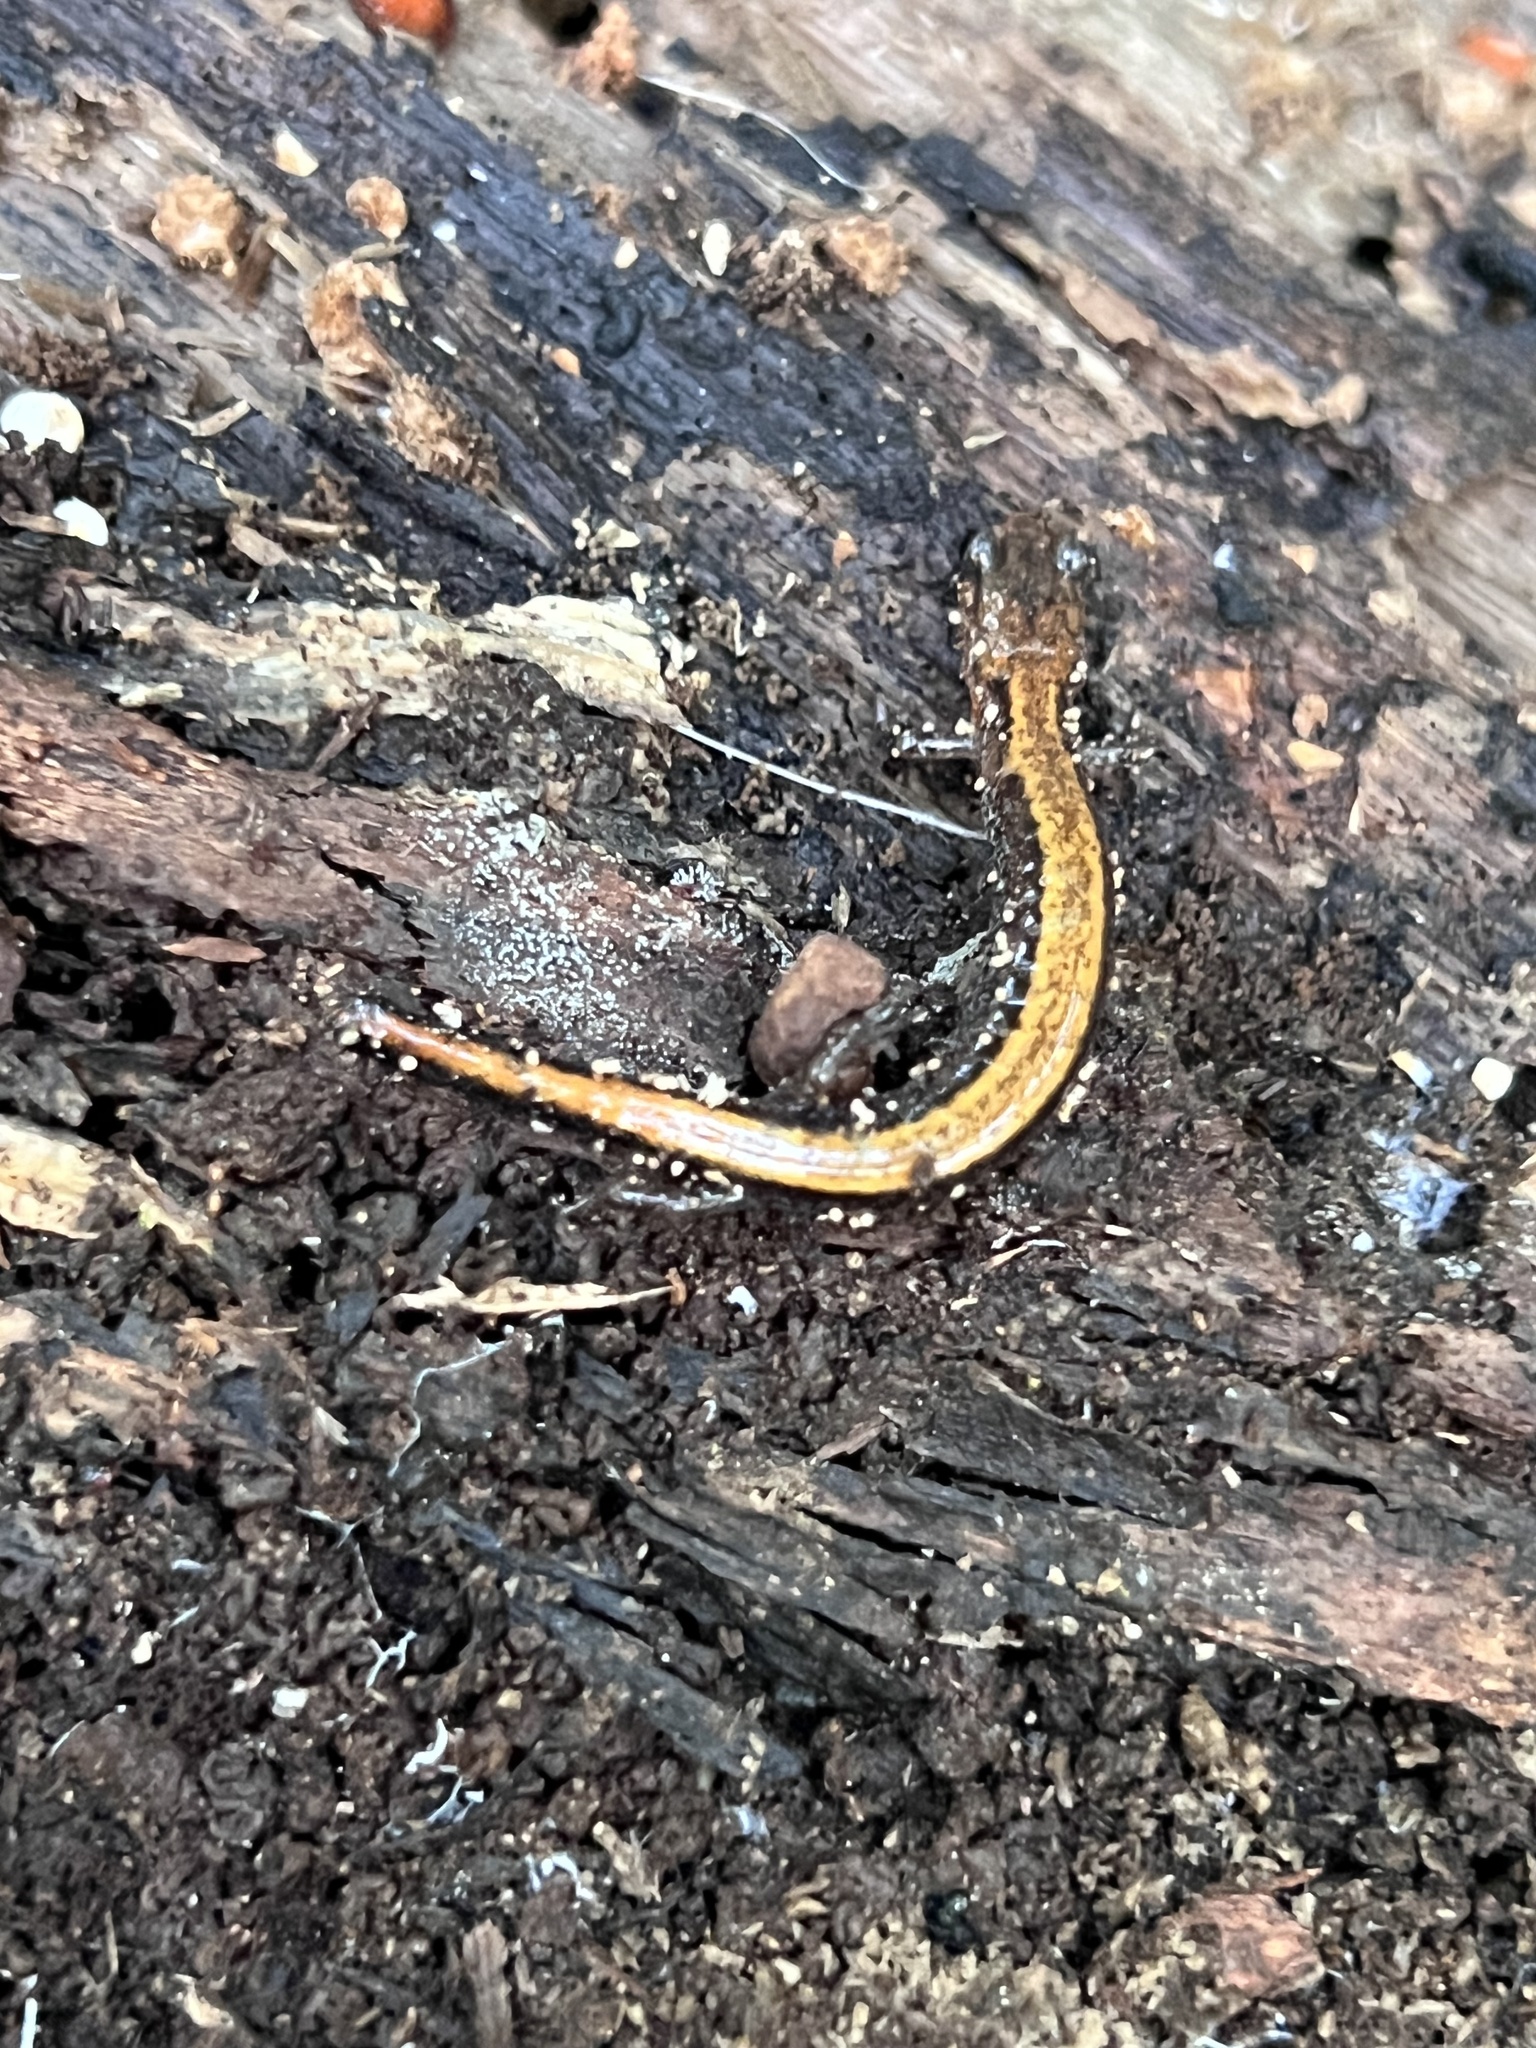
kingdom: Animalia
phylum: Chordata
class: Amphibia
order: Caudata
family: Plethodontidae
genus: Plethodon
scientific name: Plethodon cinereus
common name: Redback salamander
